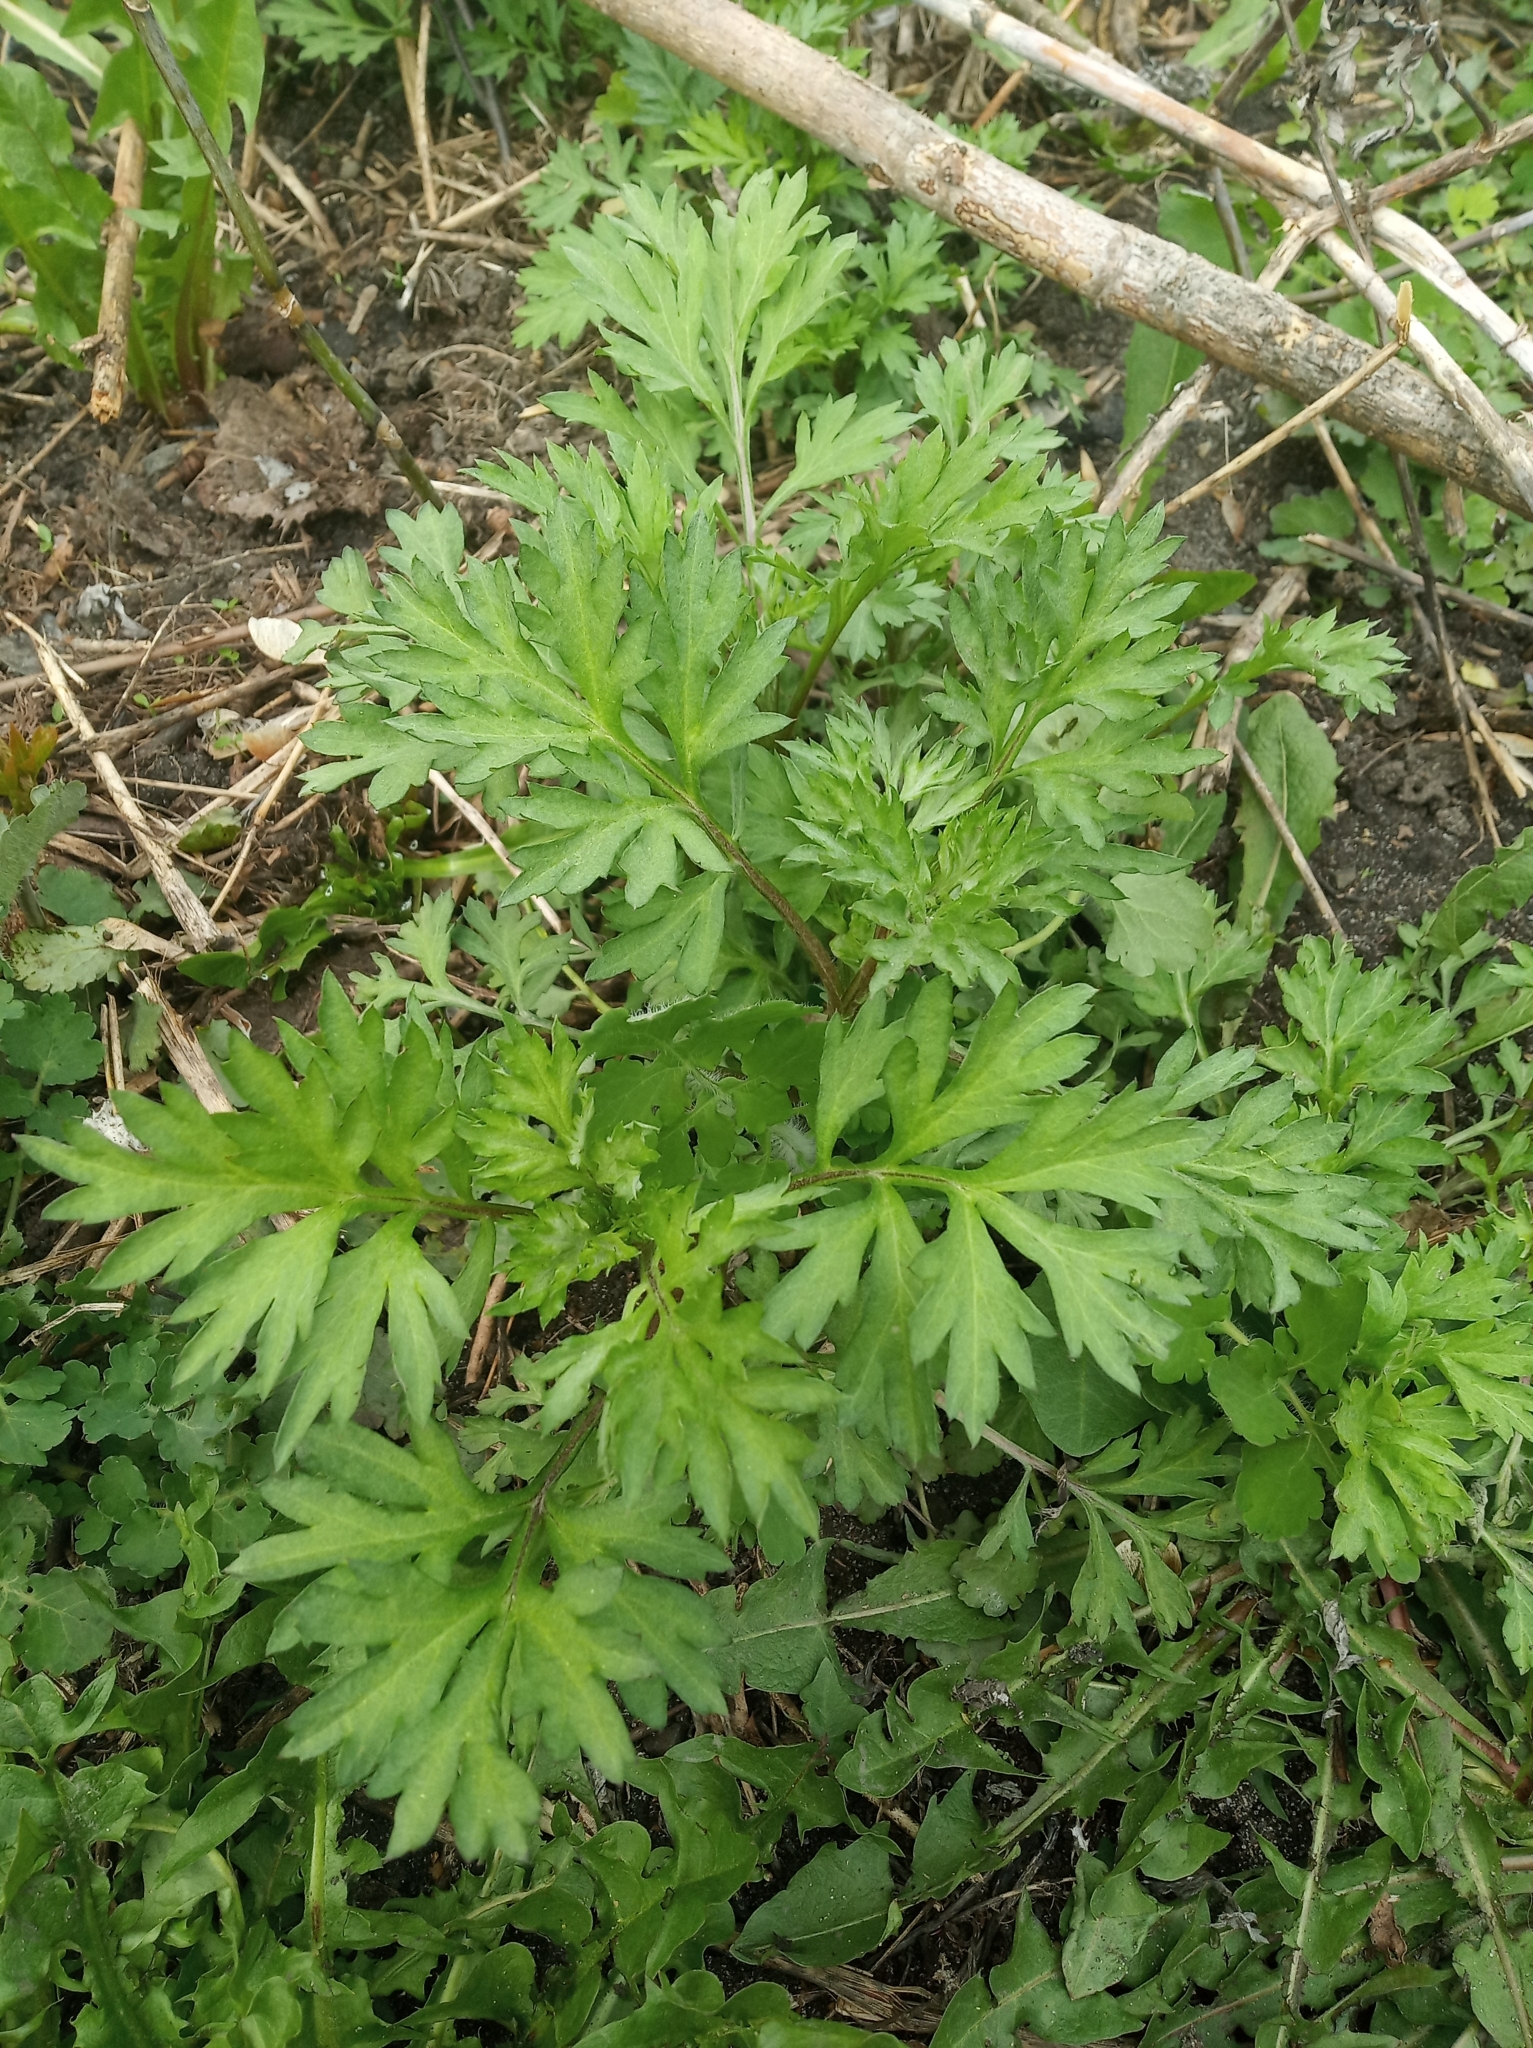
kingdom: Plantae
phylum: Tracheophyta
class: Magnoliopsida
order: Asterales
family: Asteraceae
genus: Artemisia
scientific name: Artemisia vulgaris
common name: Mugwort
